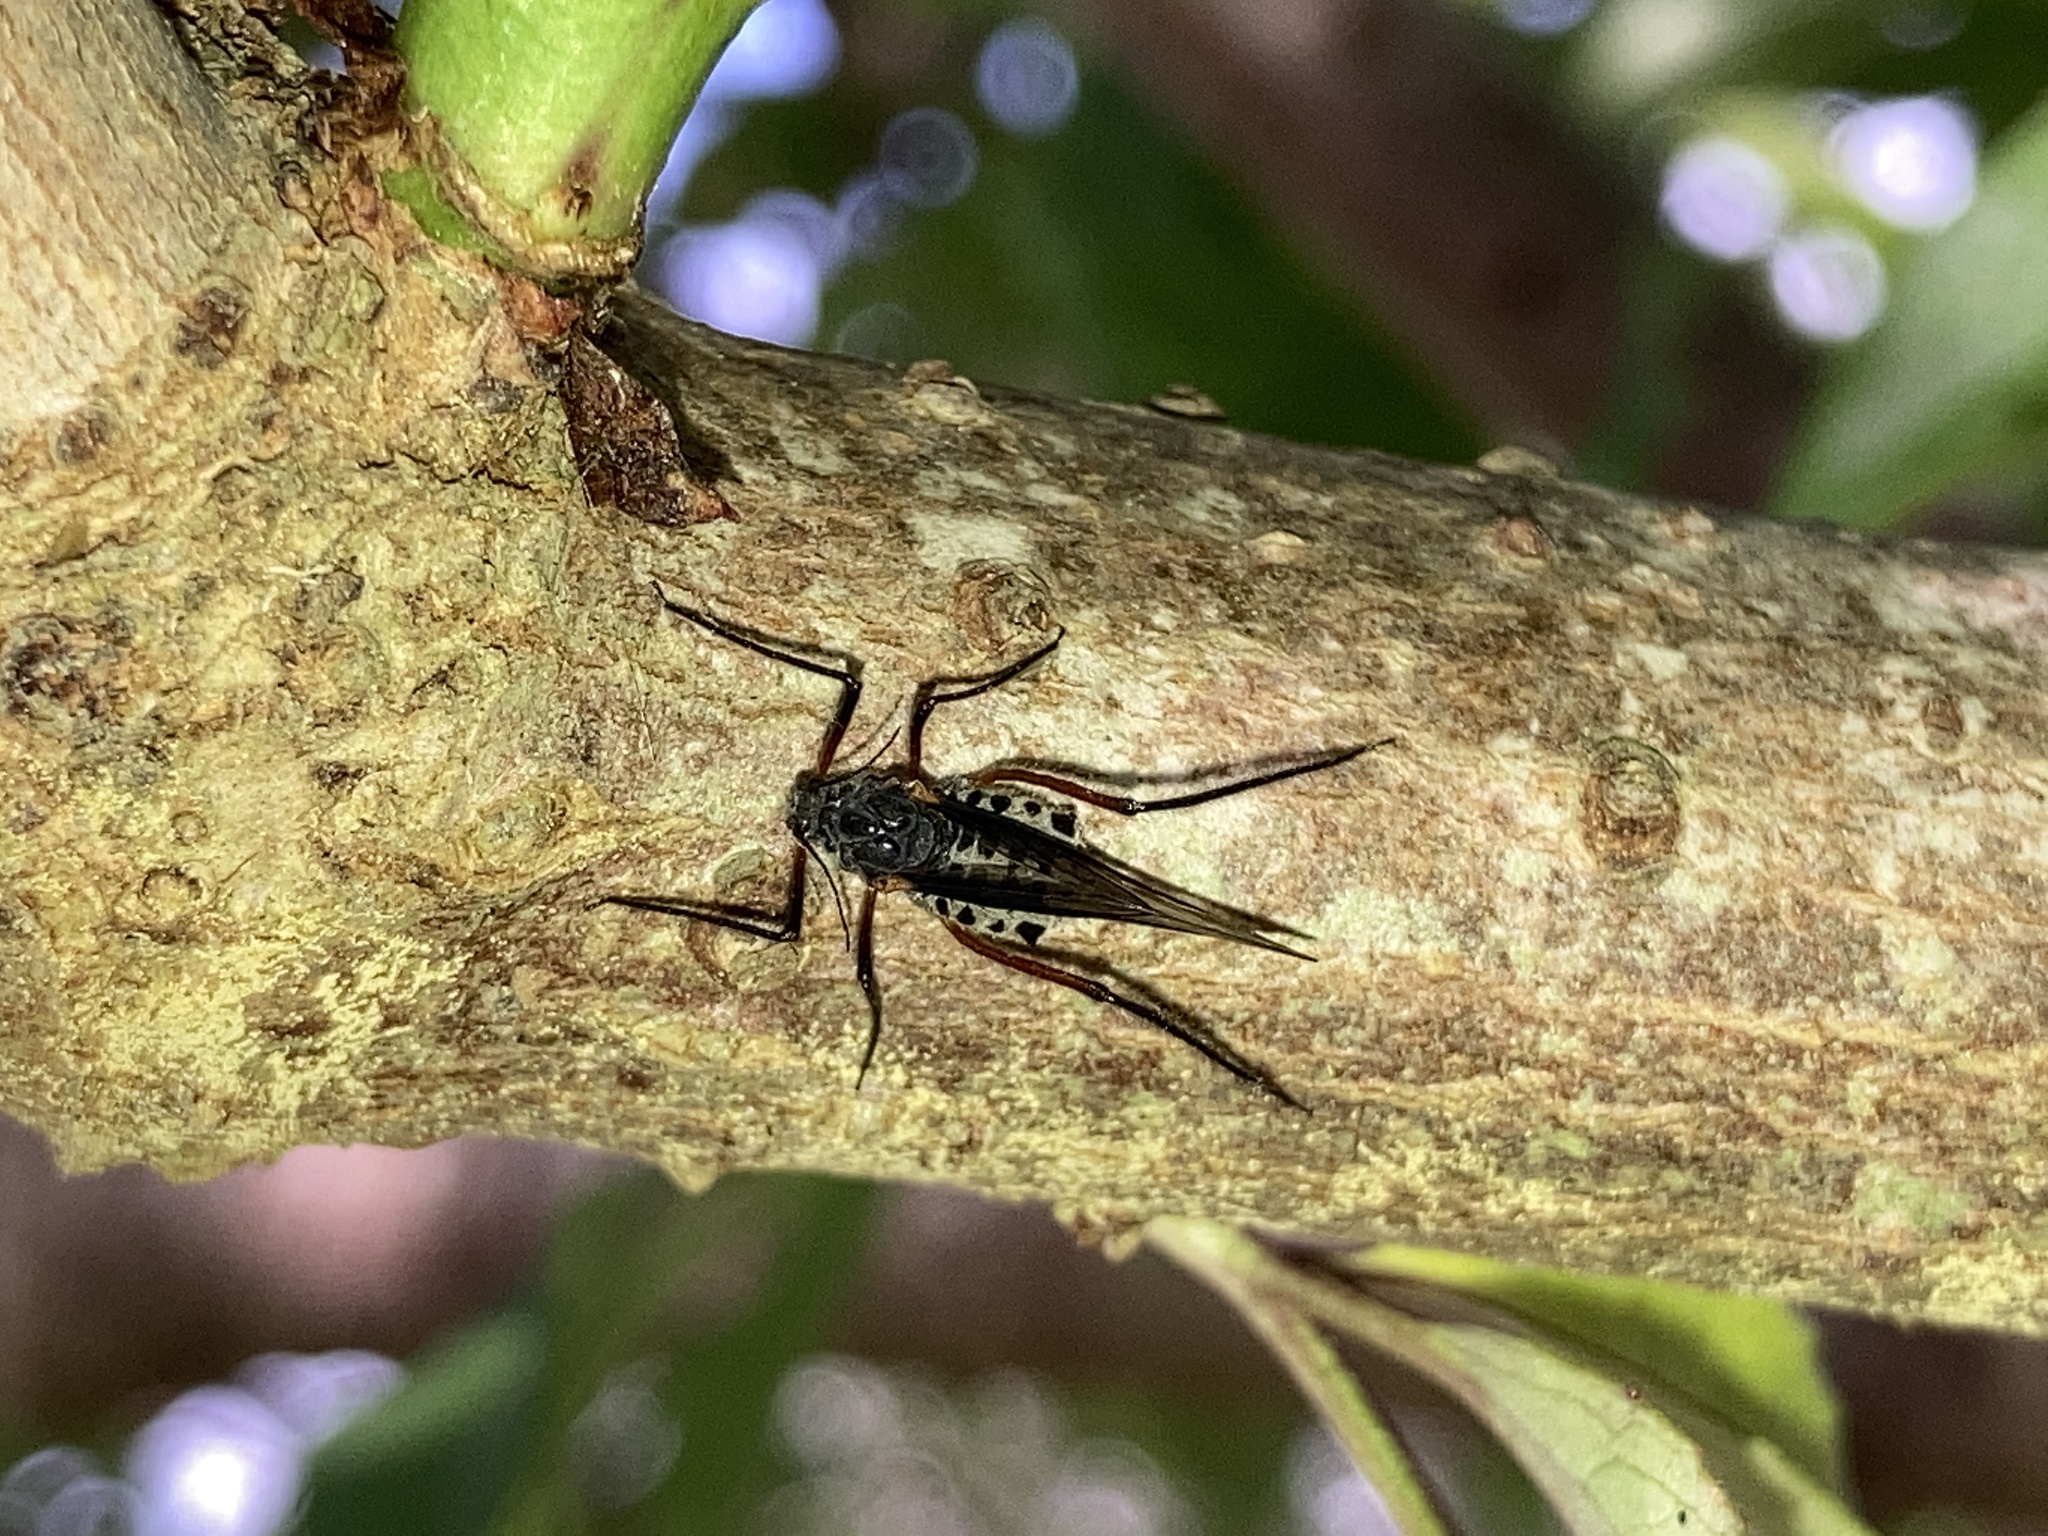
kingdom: Animalia
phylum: Arthropoda
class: Insecta
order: Hemiptera
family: Aphididae
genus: Longistigma
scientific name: Longistigma caryae
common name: Giant bark aphid
